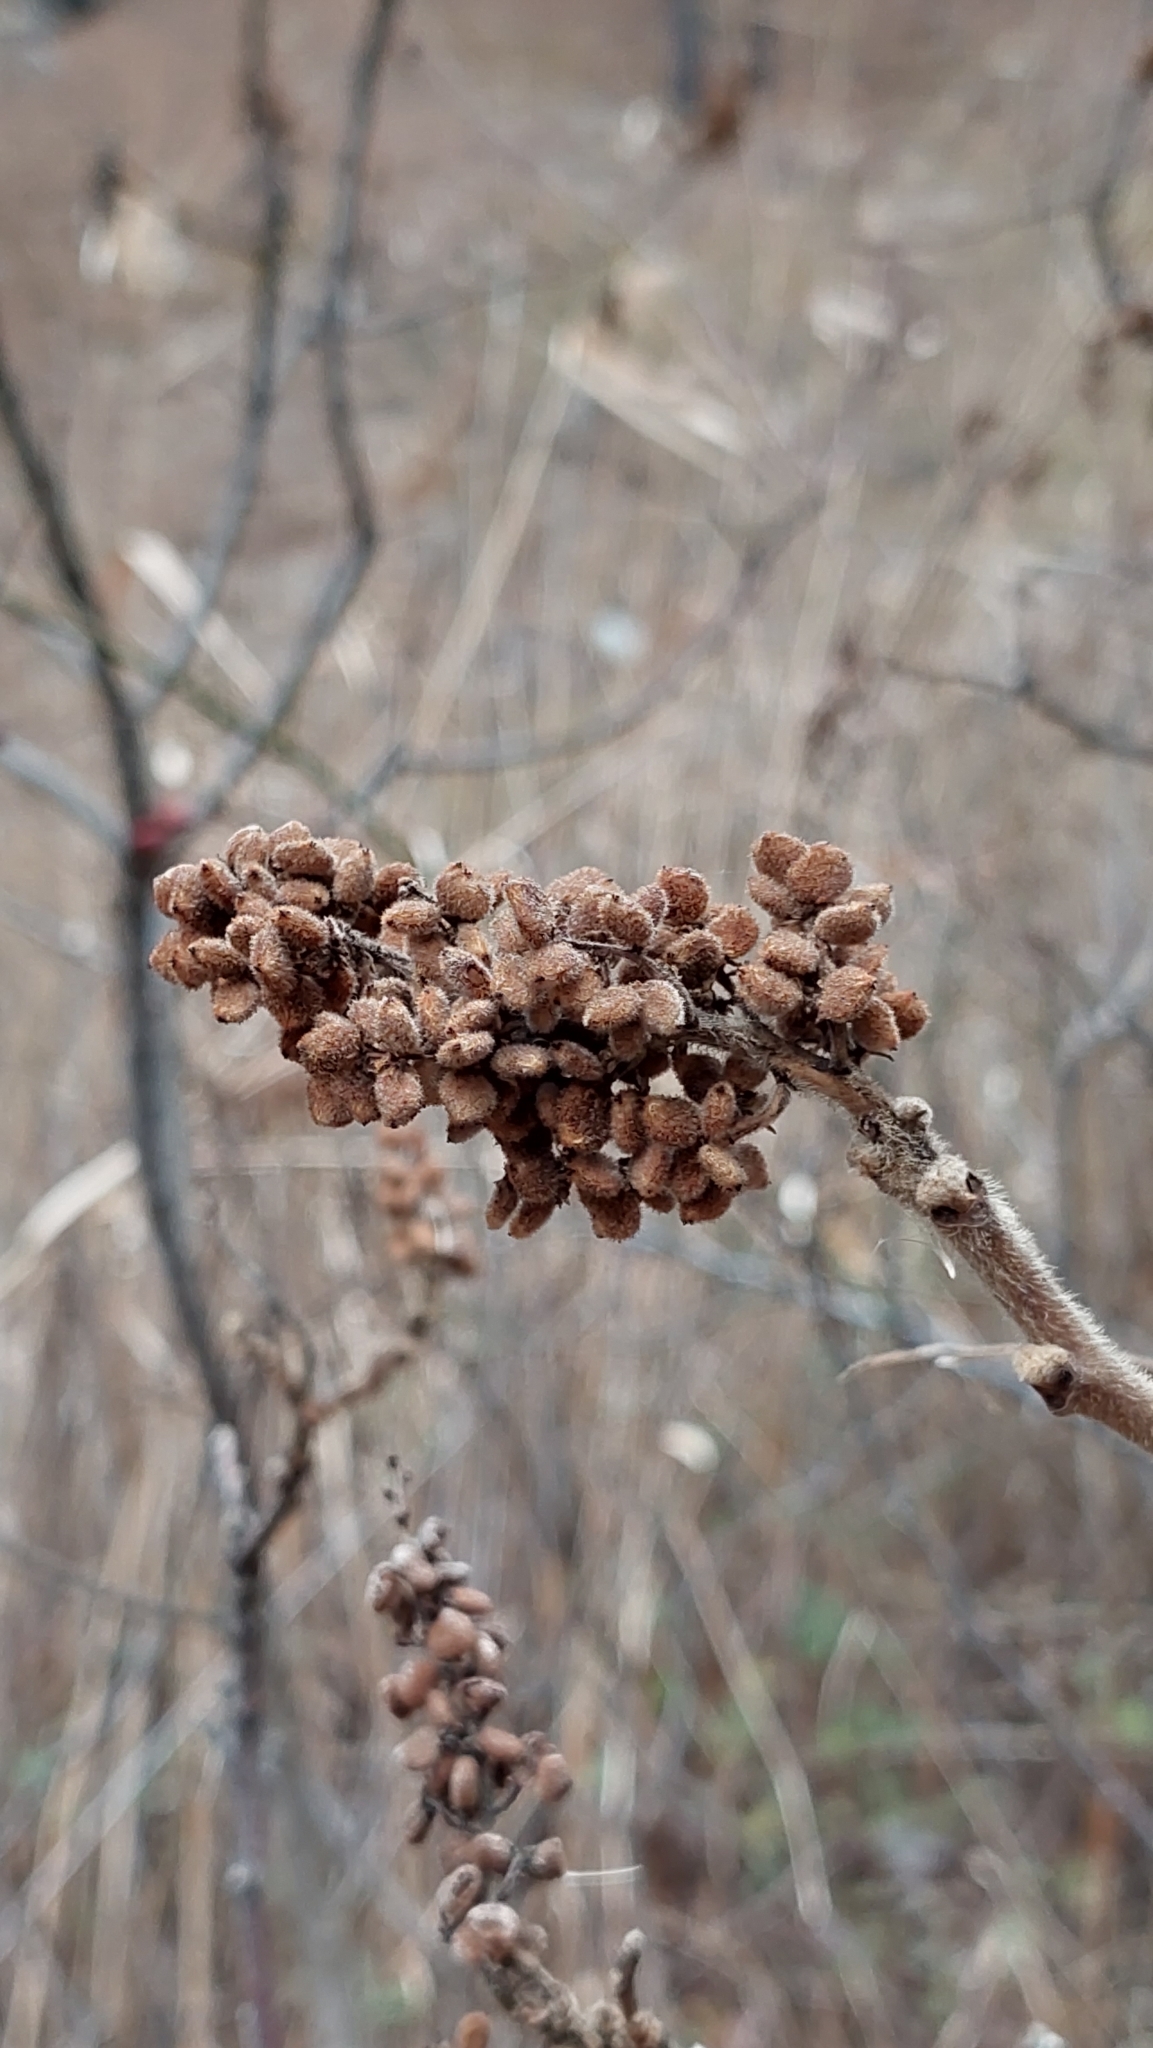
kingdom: Plantae
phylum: Tracheophyta
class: Magnoliopsida
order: Sapindales
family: Anacardiaceae
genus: Rhus
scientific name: Rhus coriaria
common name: Tanner's sumach
